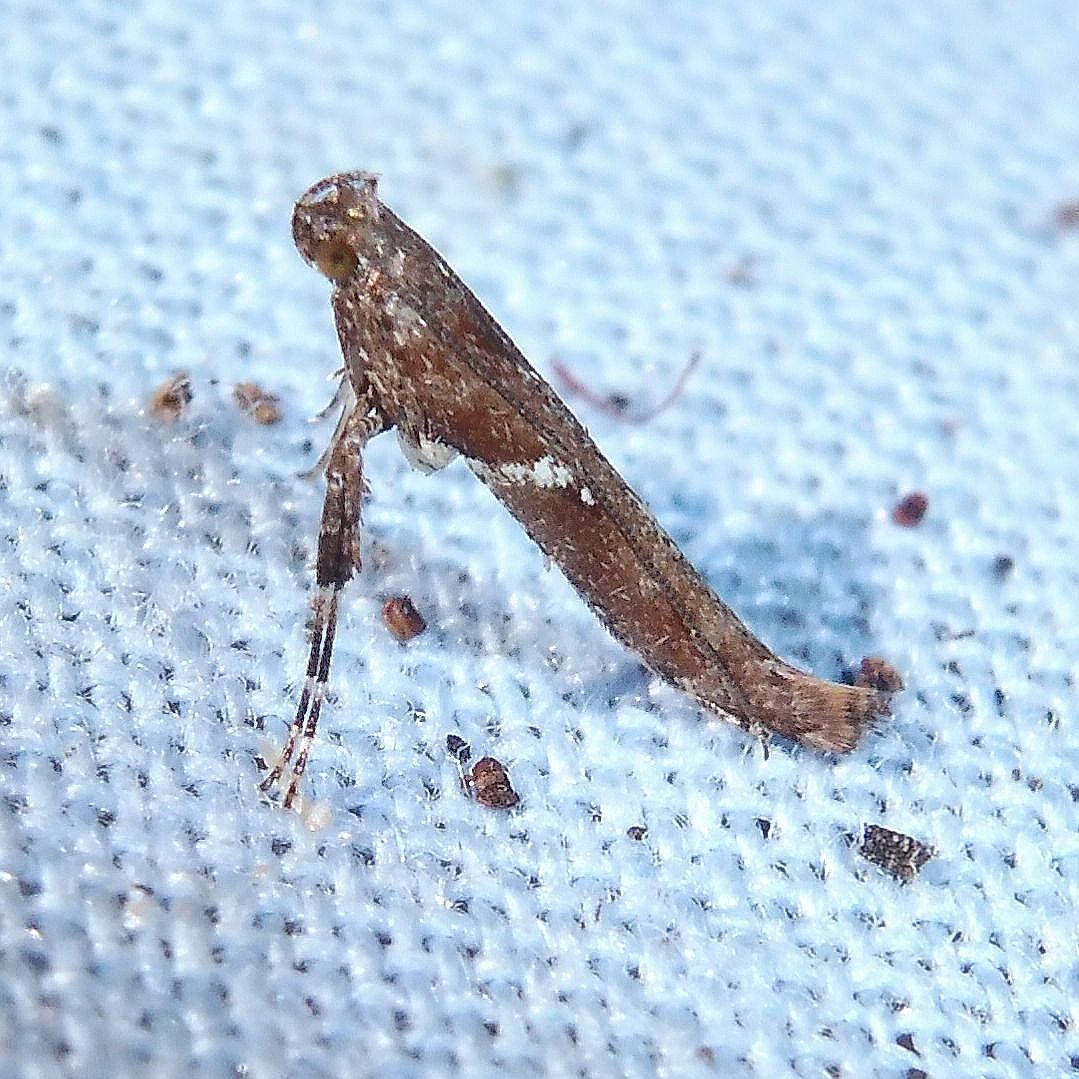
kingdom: Animalia
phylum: Arthropoda
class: Insecta
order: Lepidoptera
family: Gracillariidae
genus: Caloptilia
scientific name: Caloptilia semifascia
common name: Maple slender
